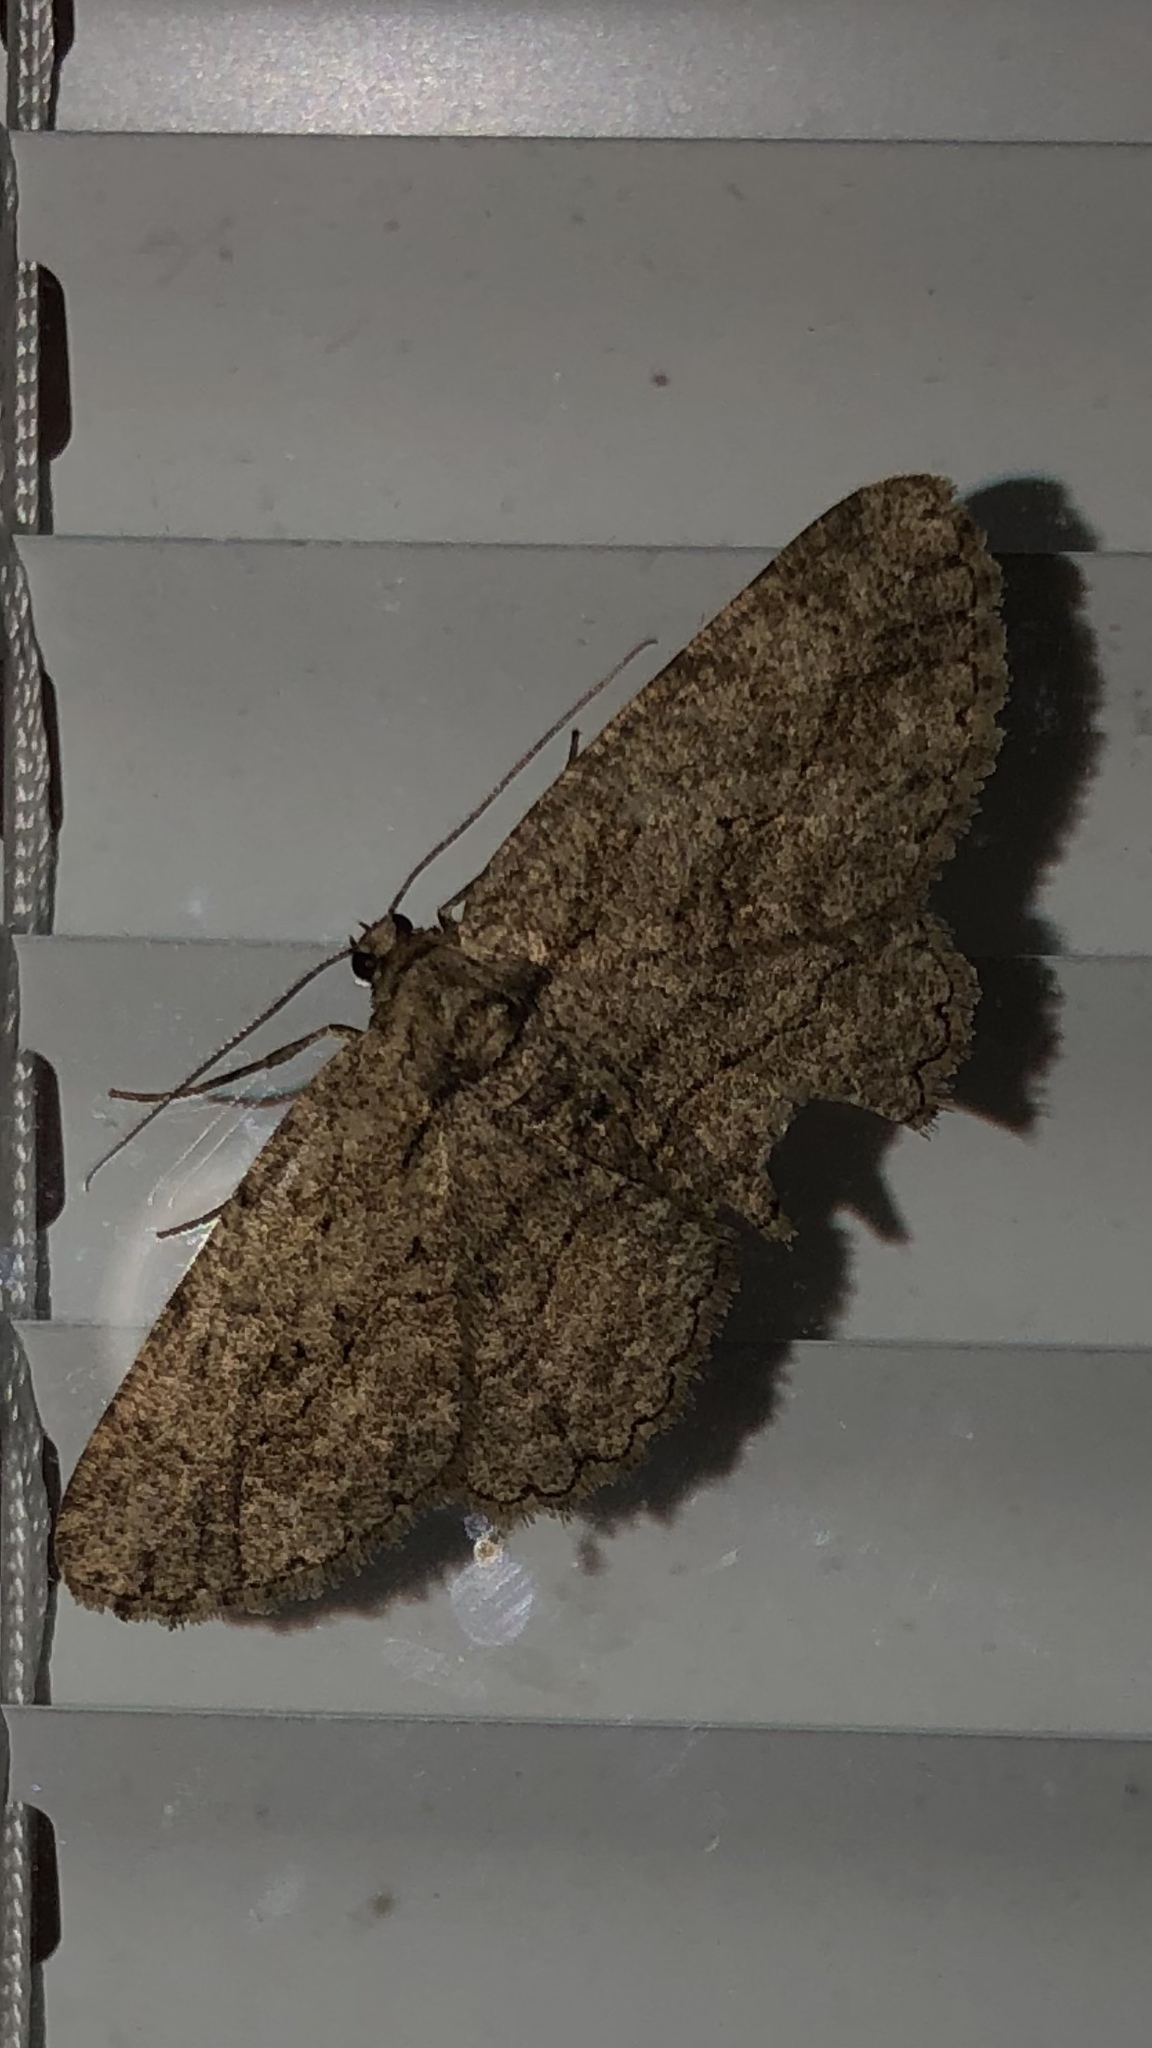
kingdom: Animalia
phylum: Arthropoda
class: Insecta
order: Lepidoptera
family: Geometridae
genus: Anavitrinella
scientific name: Anavitrinella pampinaria
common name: Common gray
